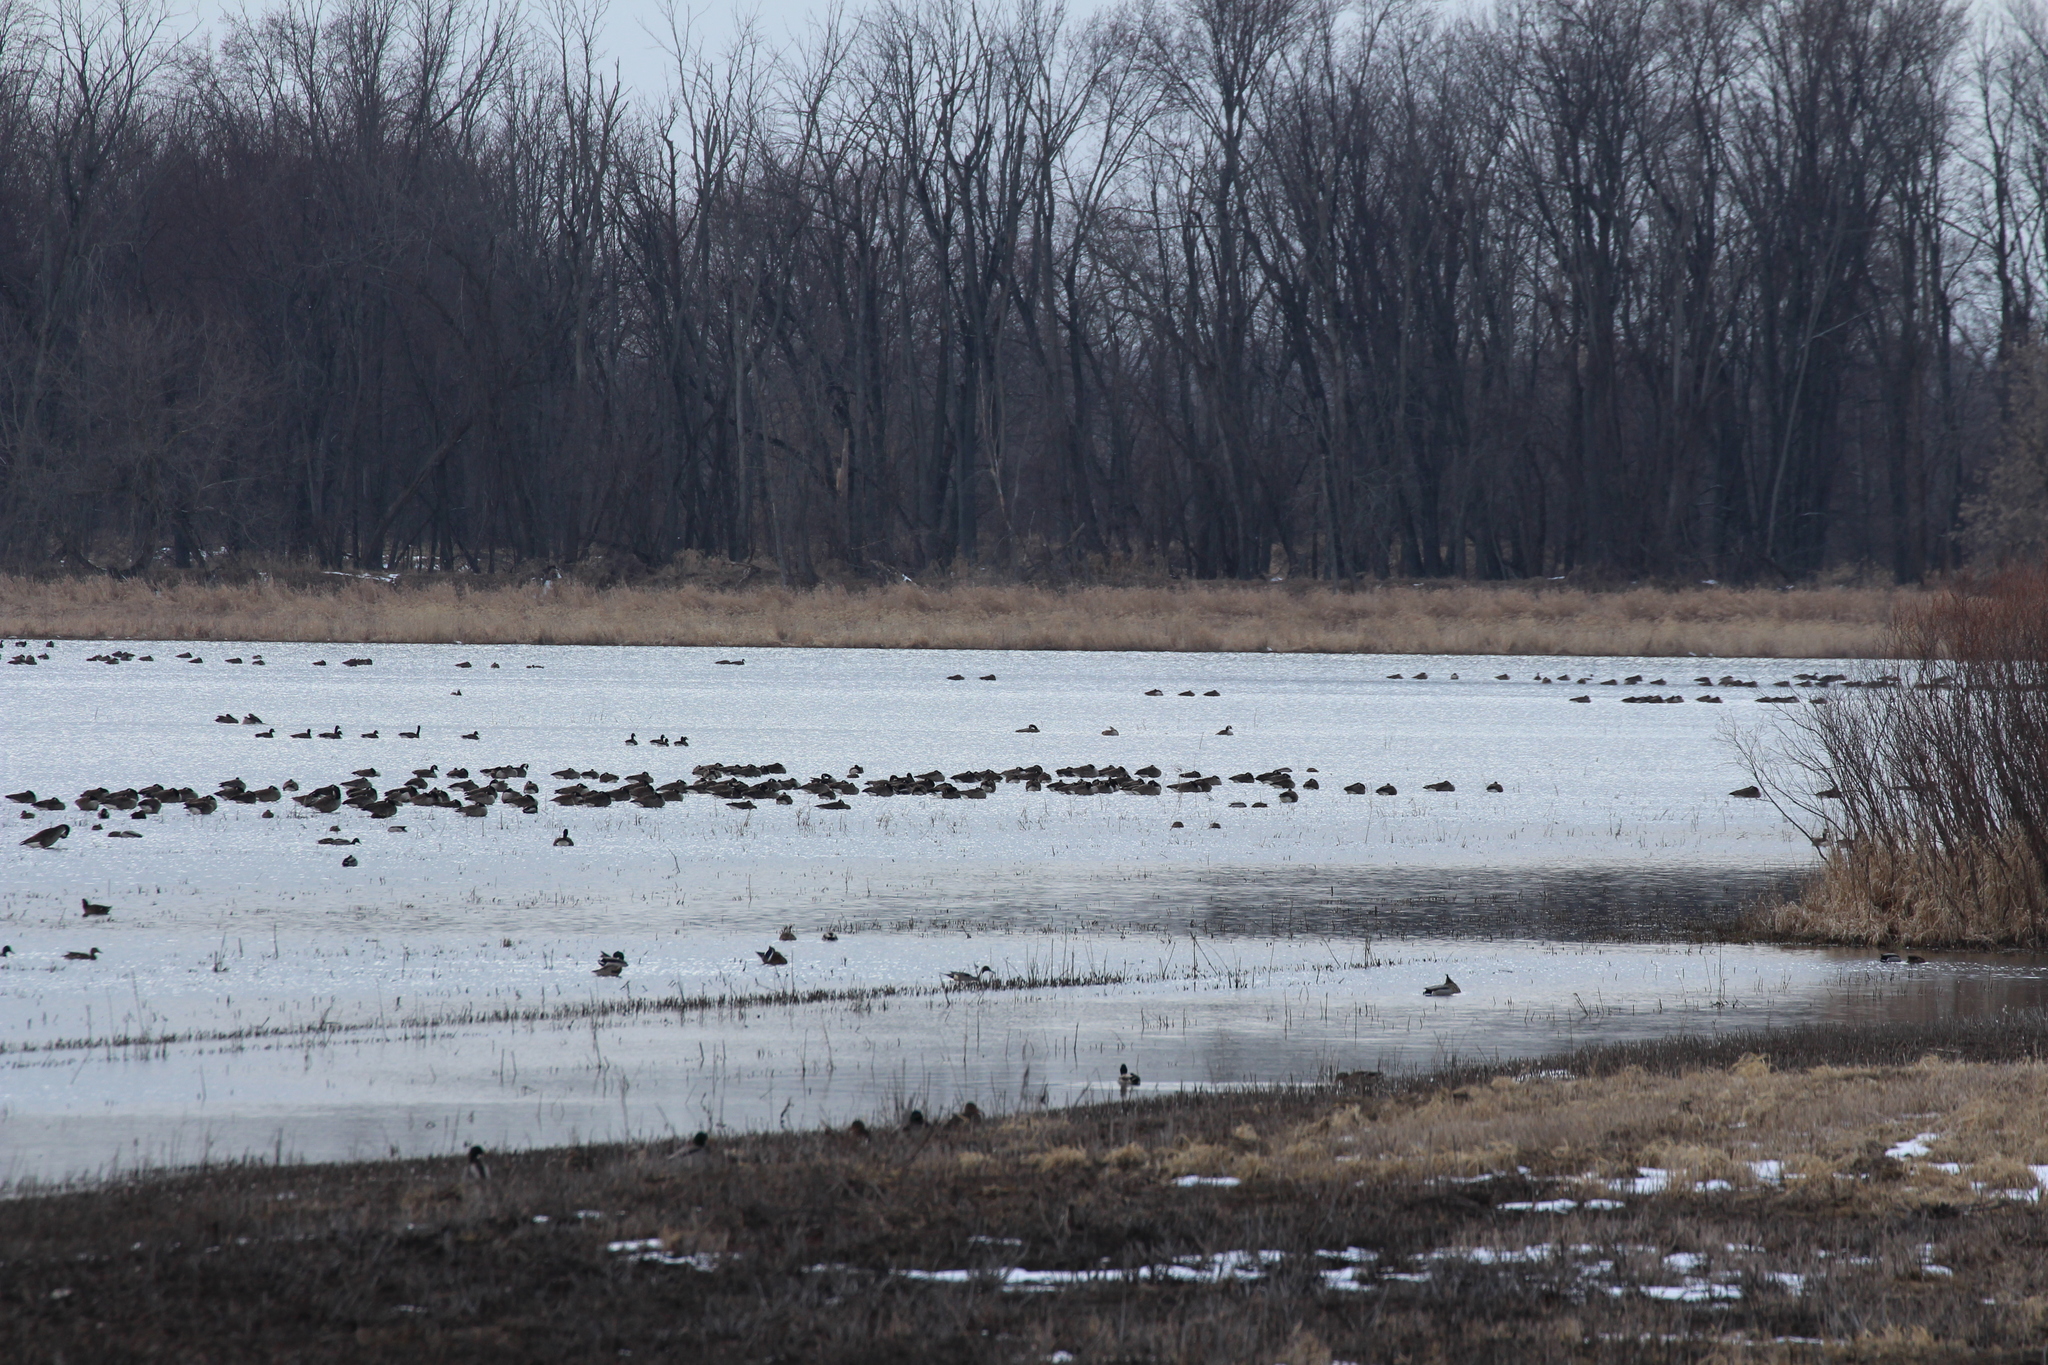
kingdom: Animalia
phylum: Chordata
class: Aves
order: Anseriformes
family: Anatidae
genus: Branta
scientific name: Branta canadensis
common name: Canada goose
